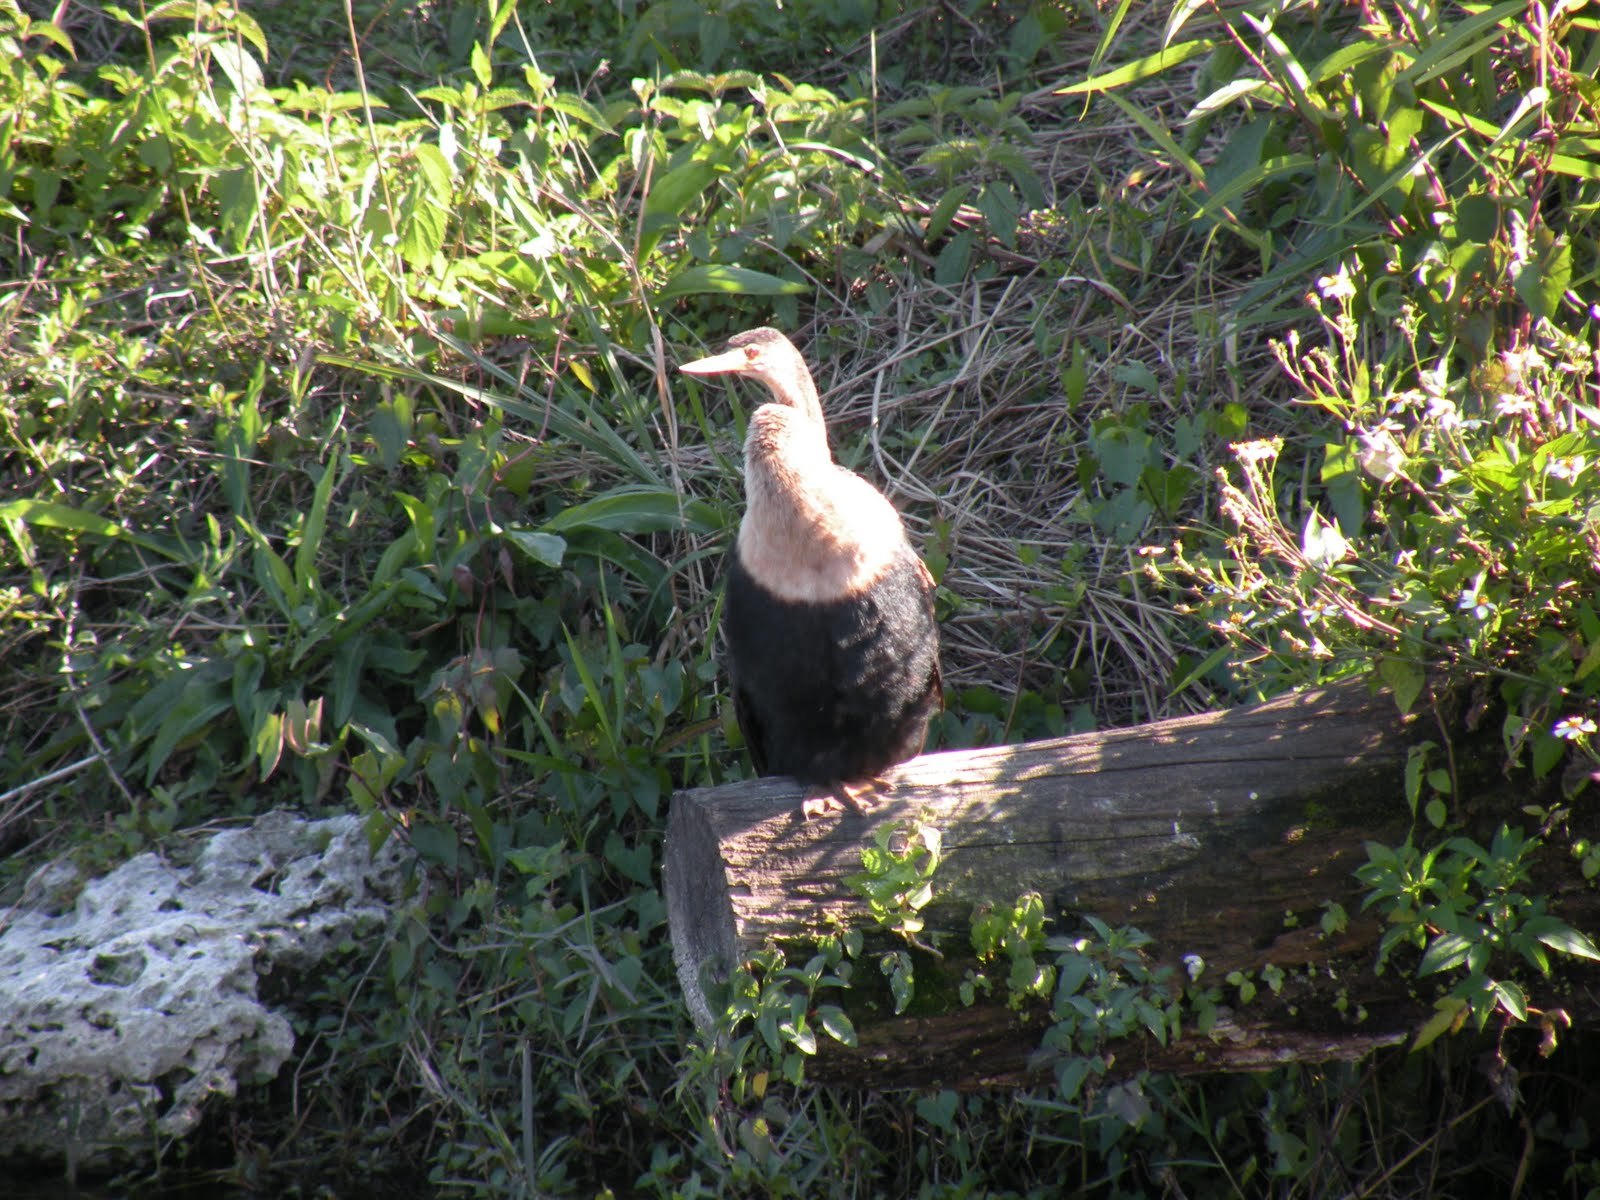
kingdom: Animalia
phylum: Chordata
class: Aves
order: Suliformes
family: Anhingidae
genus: Anhinga
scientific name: Anhinga anhinga
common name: Anhinga
